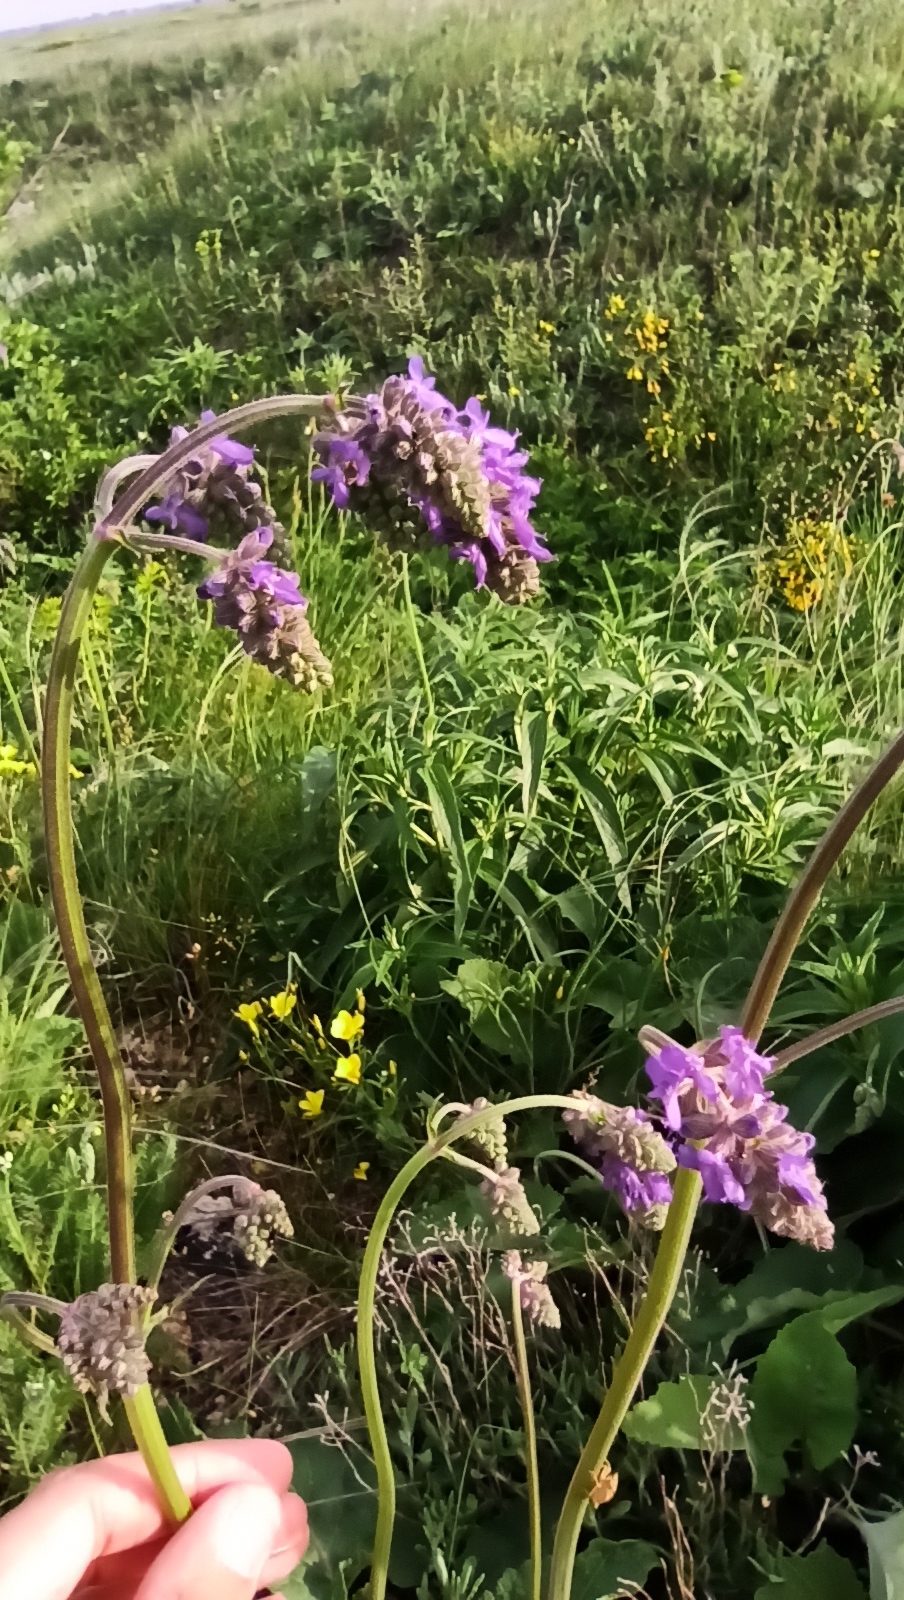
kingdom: Plantae
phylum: Tracheophyta
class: Magnoliopsida
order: Lamiales
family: Lamiaceae
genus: Salvia
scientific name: Salvia nutans
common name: Nodding sage
